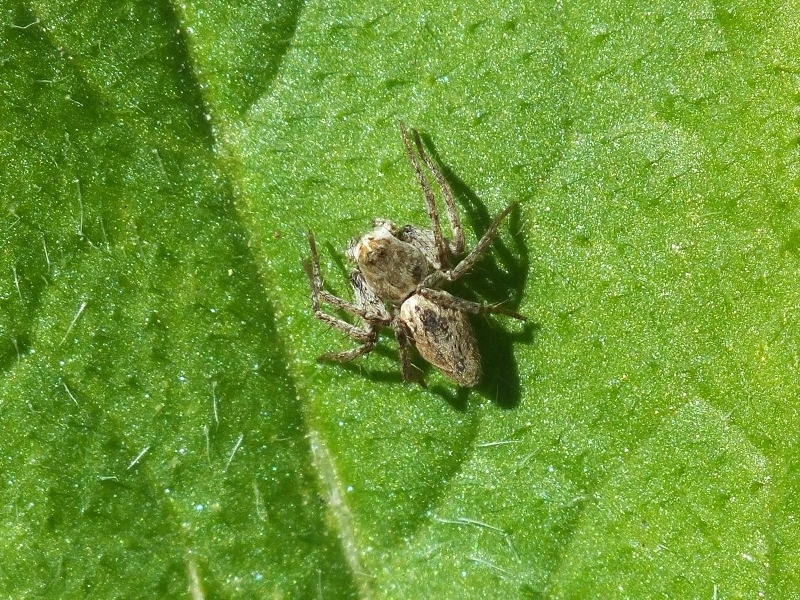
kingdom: Animalia
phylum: Arthropoda
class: Arachnida
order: Araneae
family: Oxyopidae
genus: Oxyopes
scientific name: Oxyopes heterophthalmus
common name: Lynx spider
